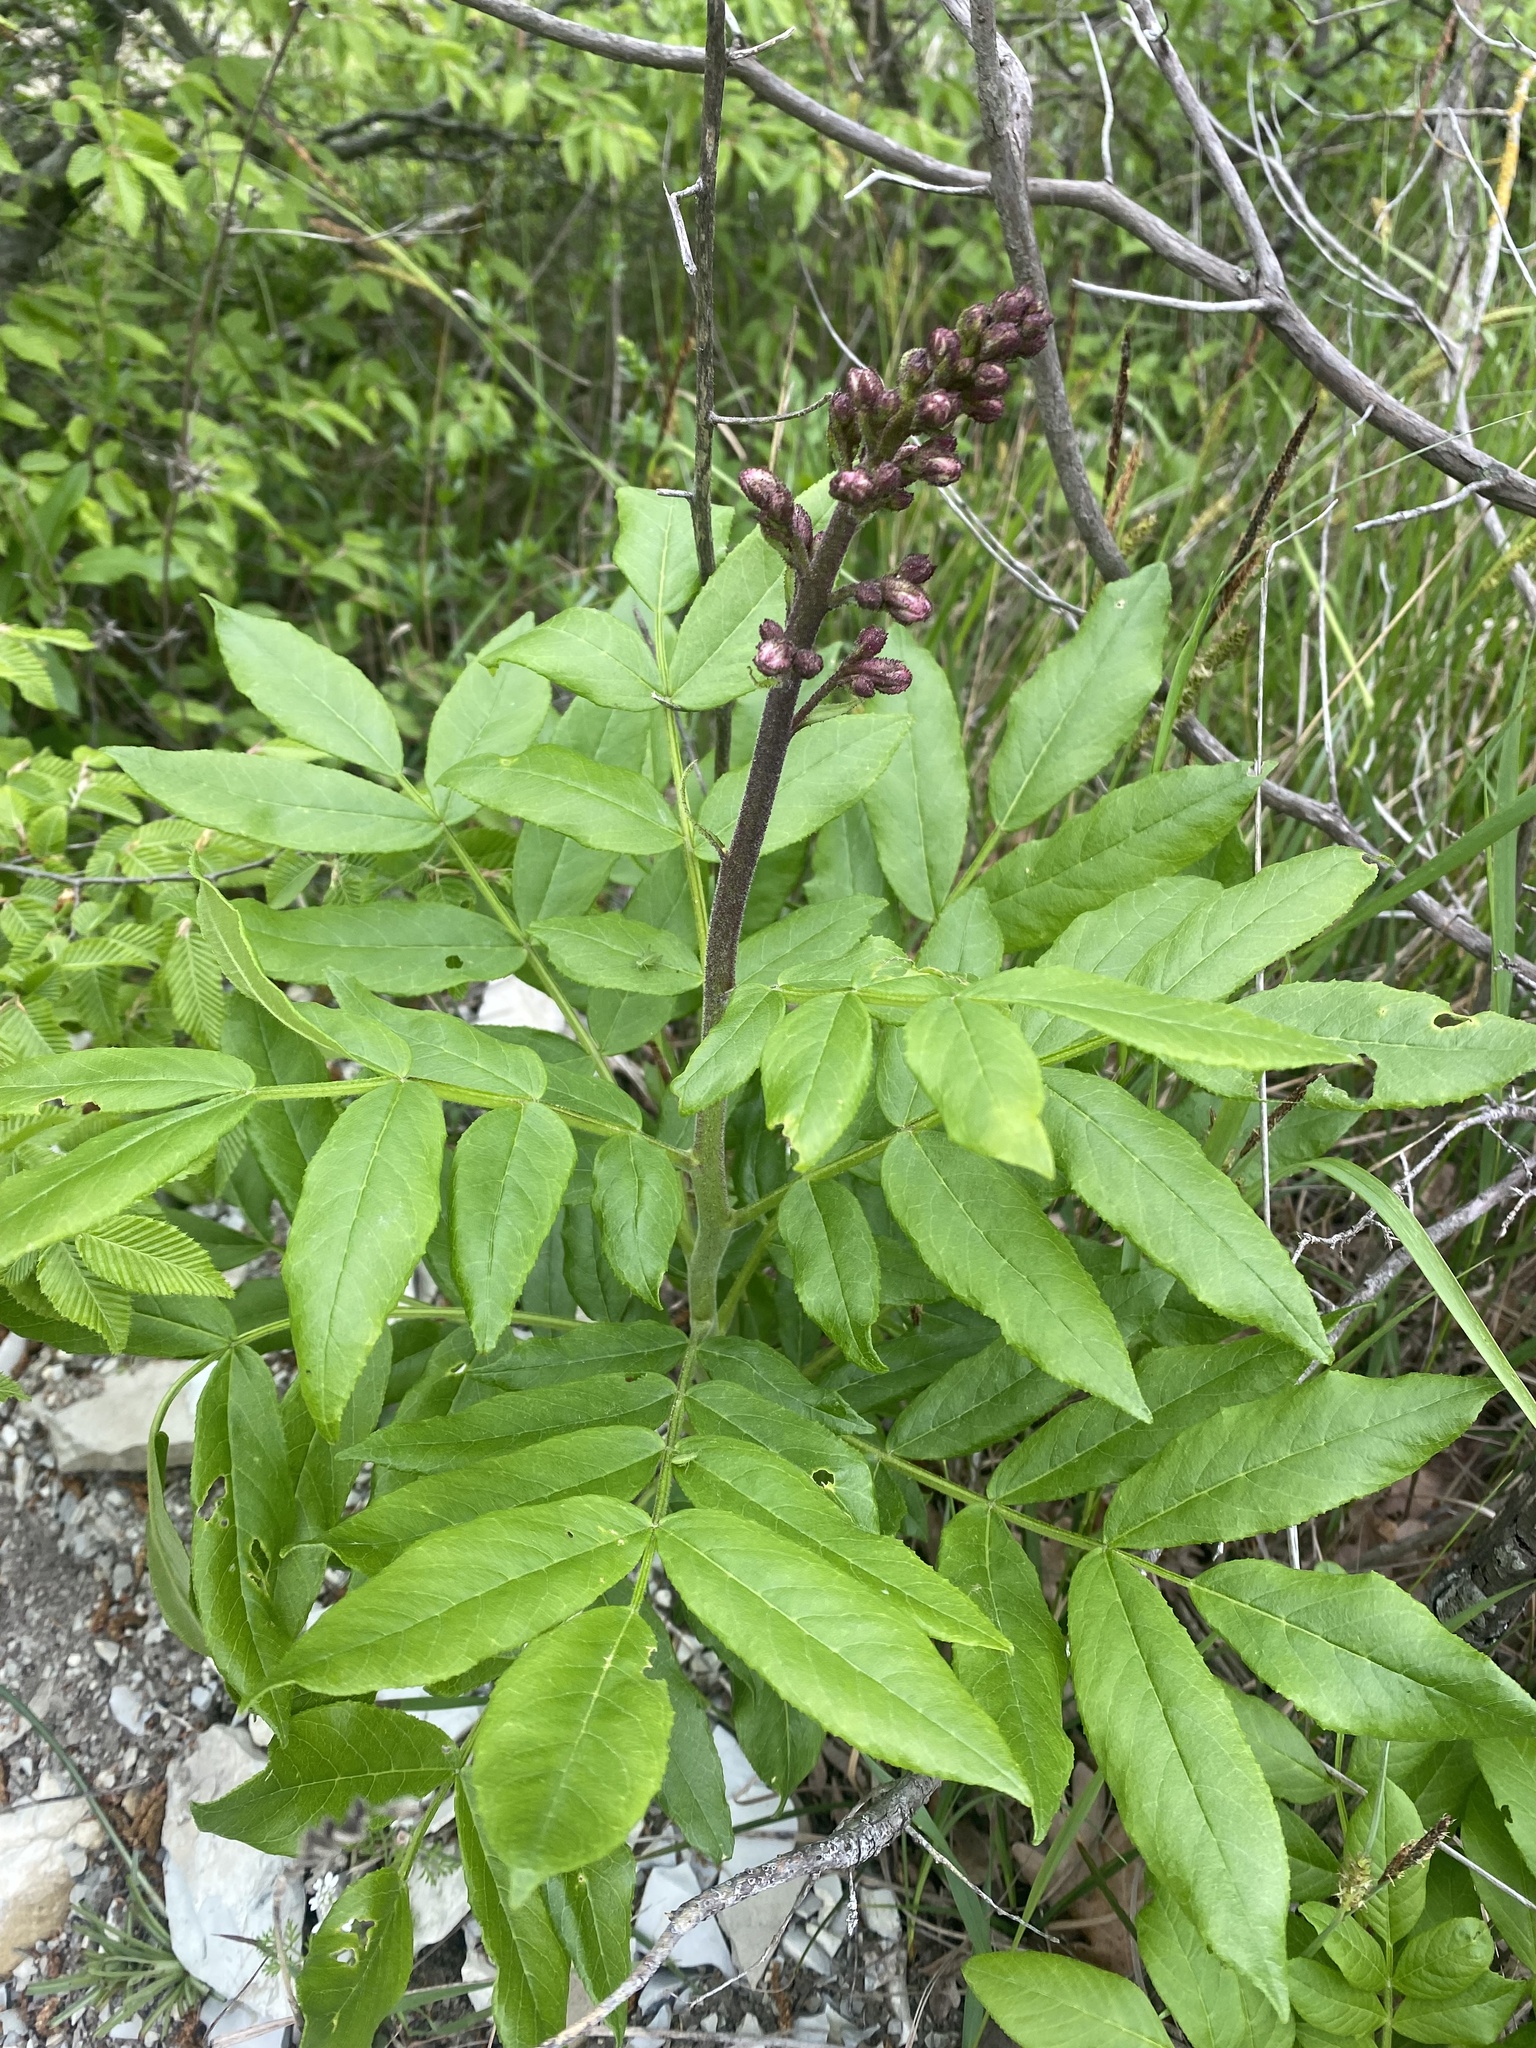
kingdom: Plantae
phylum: Tracheophyta
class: Magnoliopsida
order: Sapindales
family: Rutaceae
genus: Dictamnus
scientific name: Dictamnus albus
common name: Gasplant
